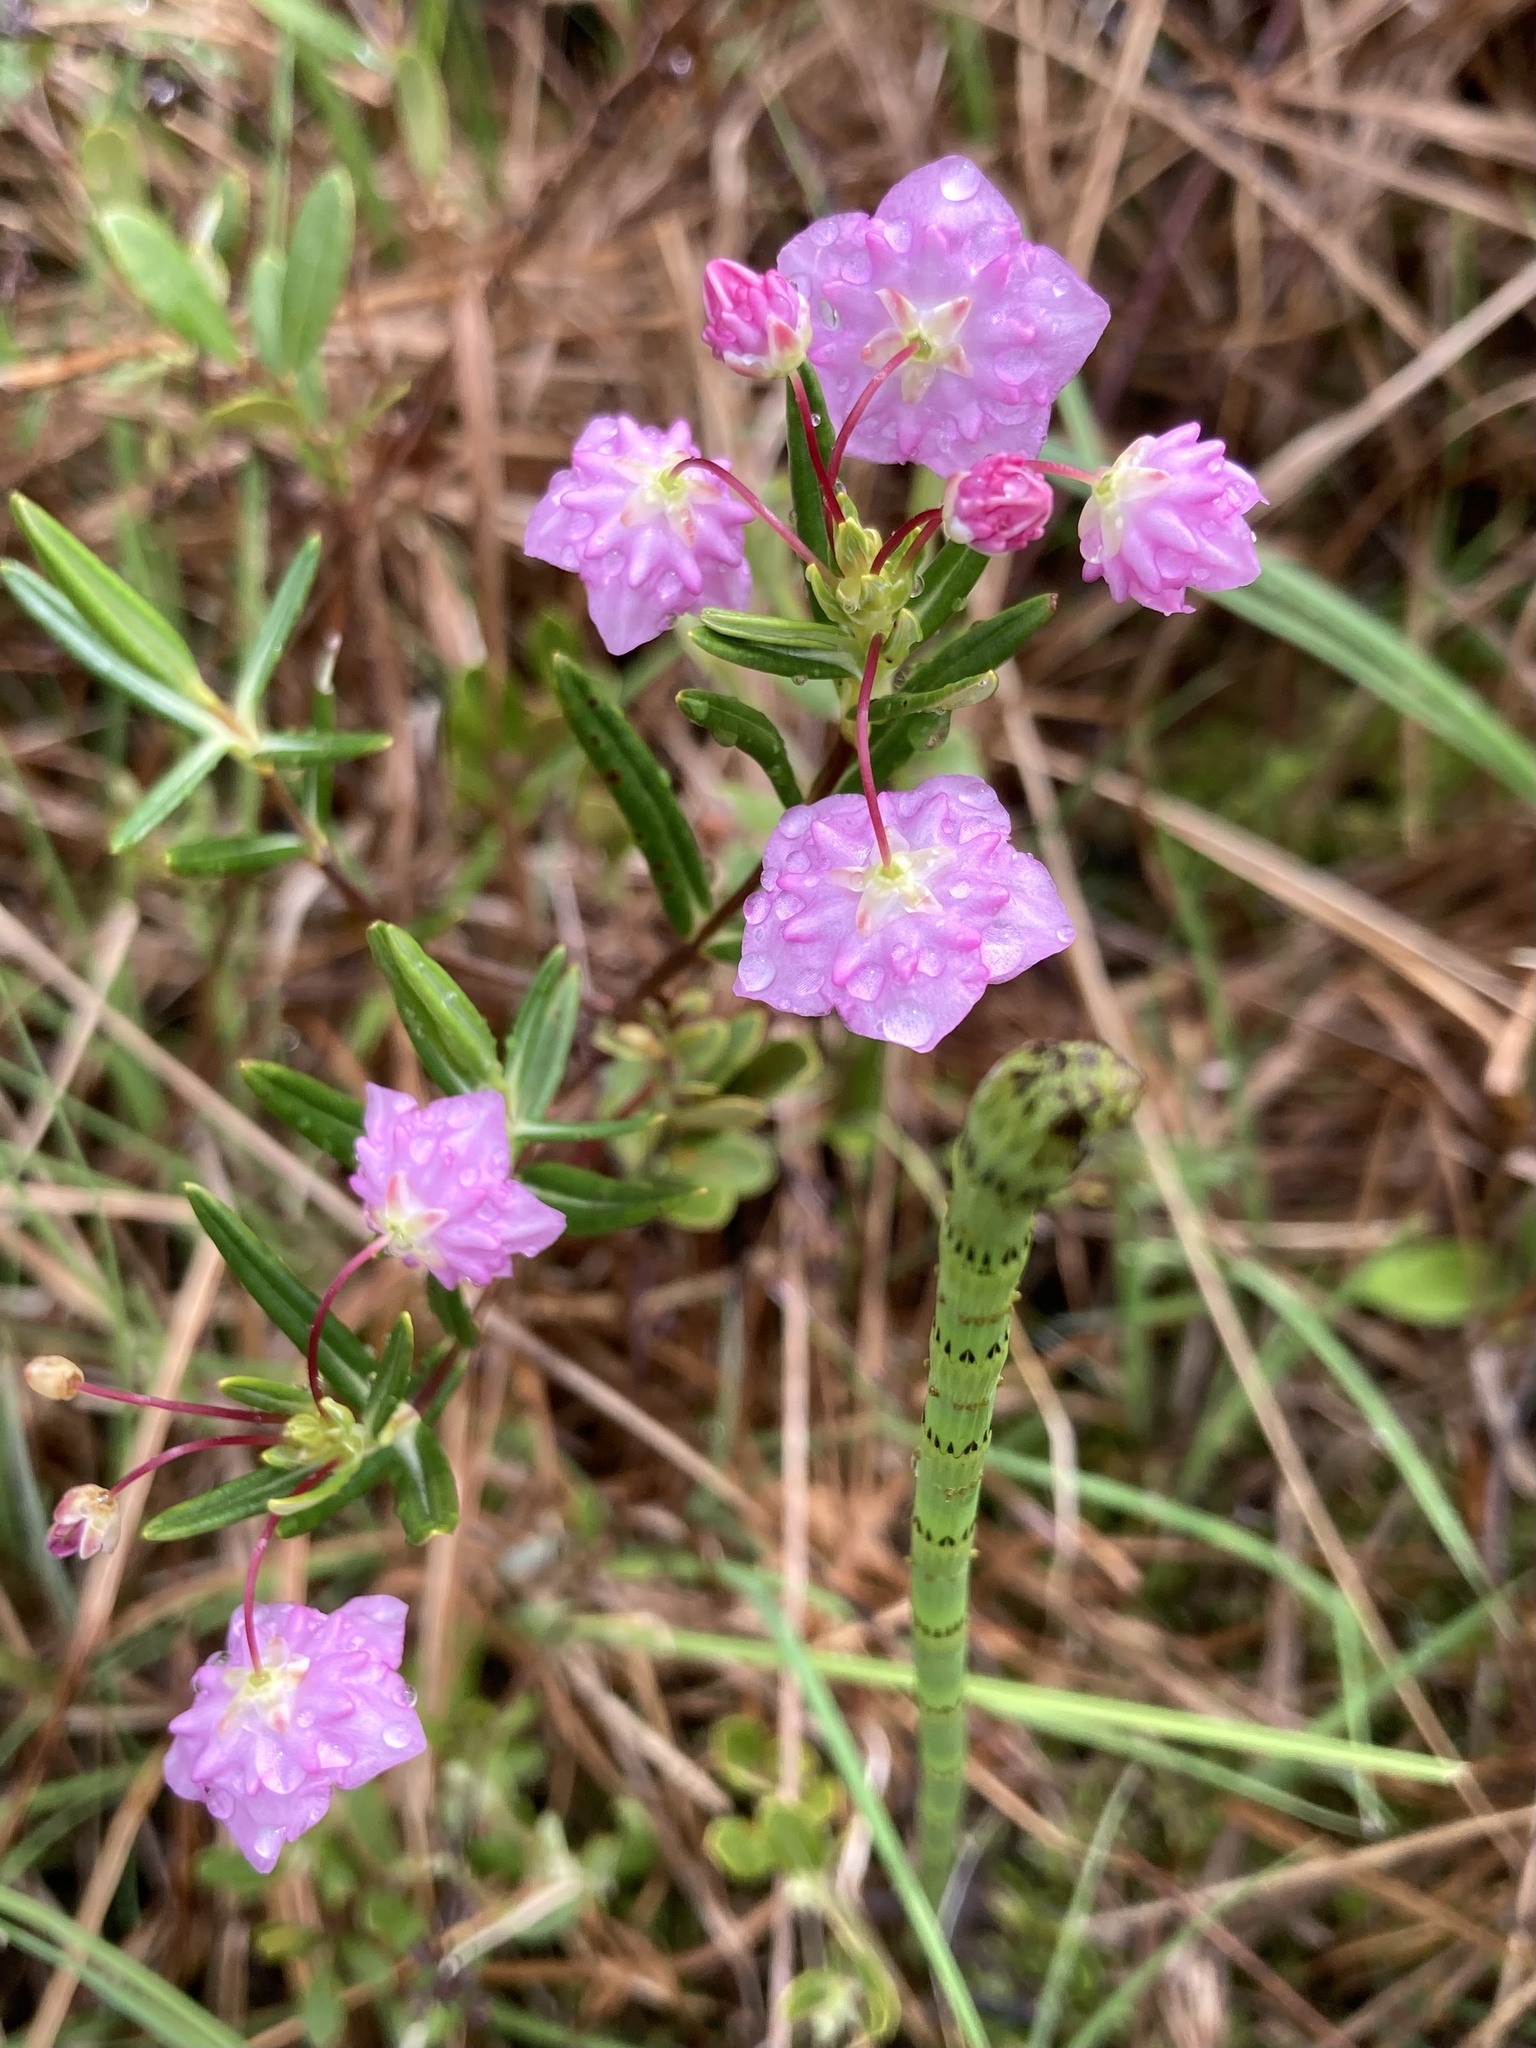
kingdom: Plantae
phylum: Tracheophyta
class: Magnoliopsida
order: Ericales
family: Ericaceae
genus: Kalmia
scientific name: Kalmia polifolia
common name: Bog-laurel
